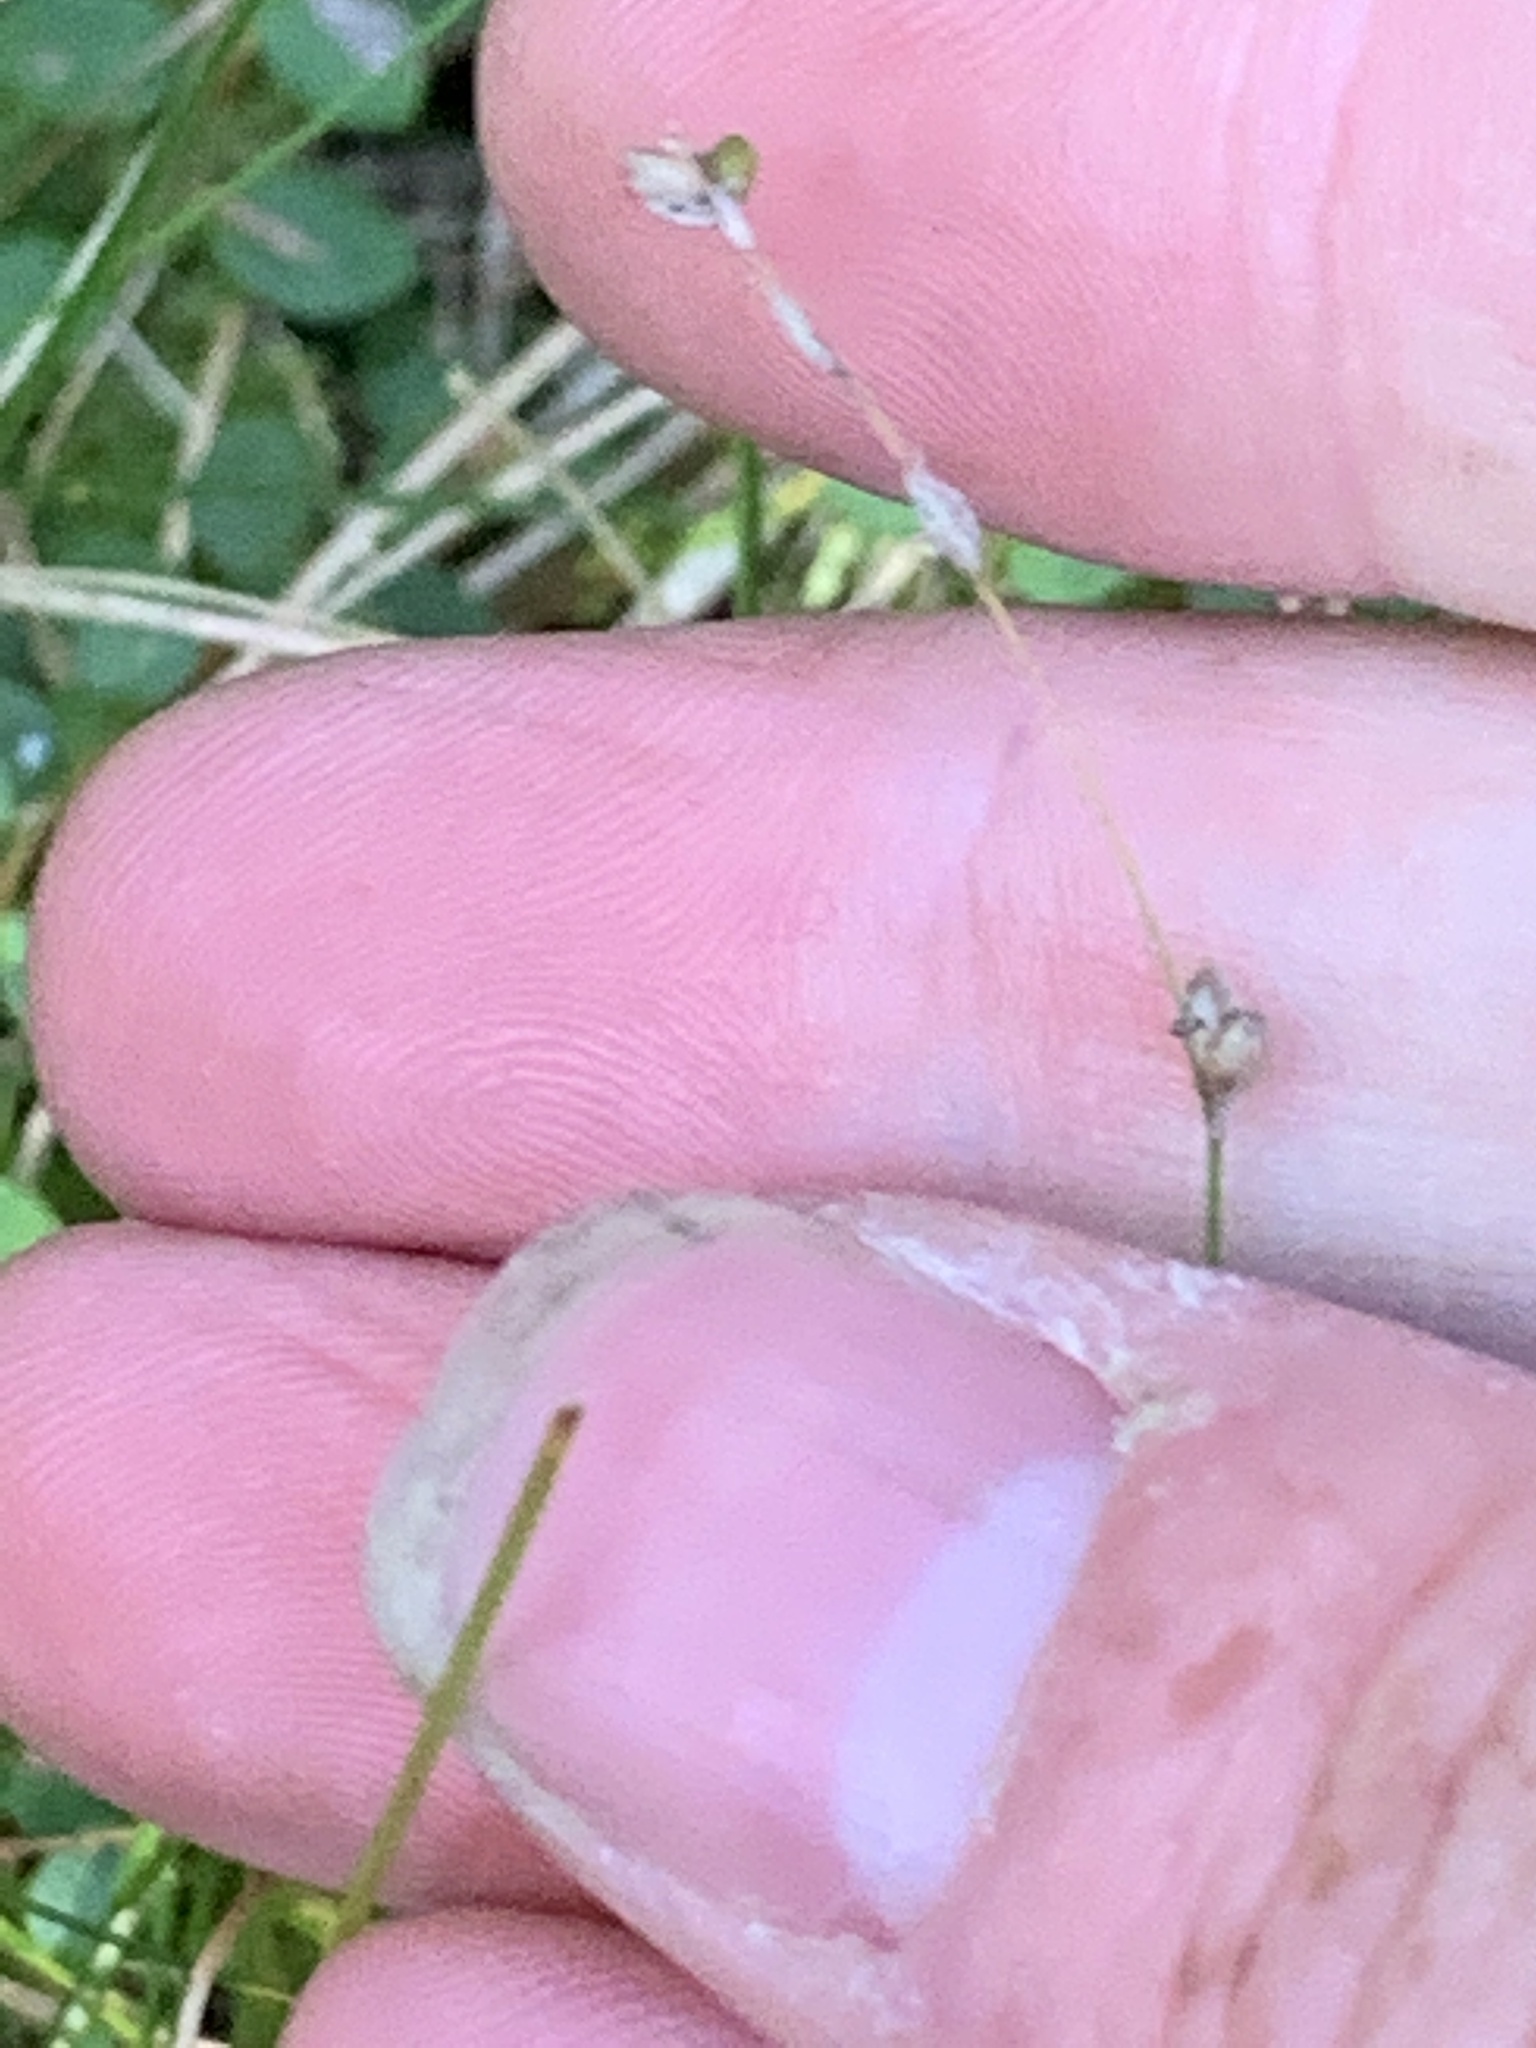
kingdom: Plantae
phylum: Tracheophyta
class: Liliopsida
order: Poales
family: Cyperaceae
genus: Carex
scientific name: Carex
